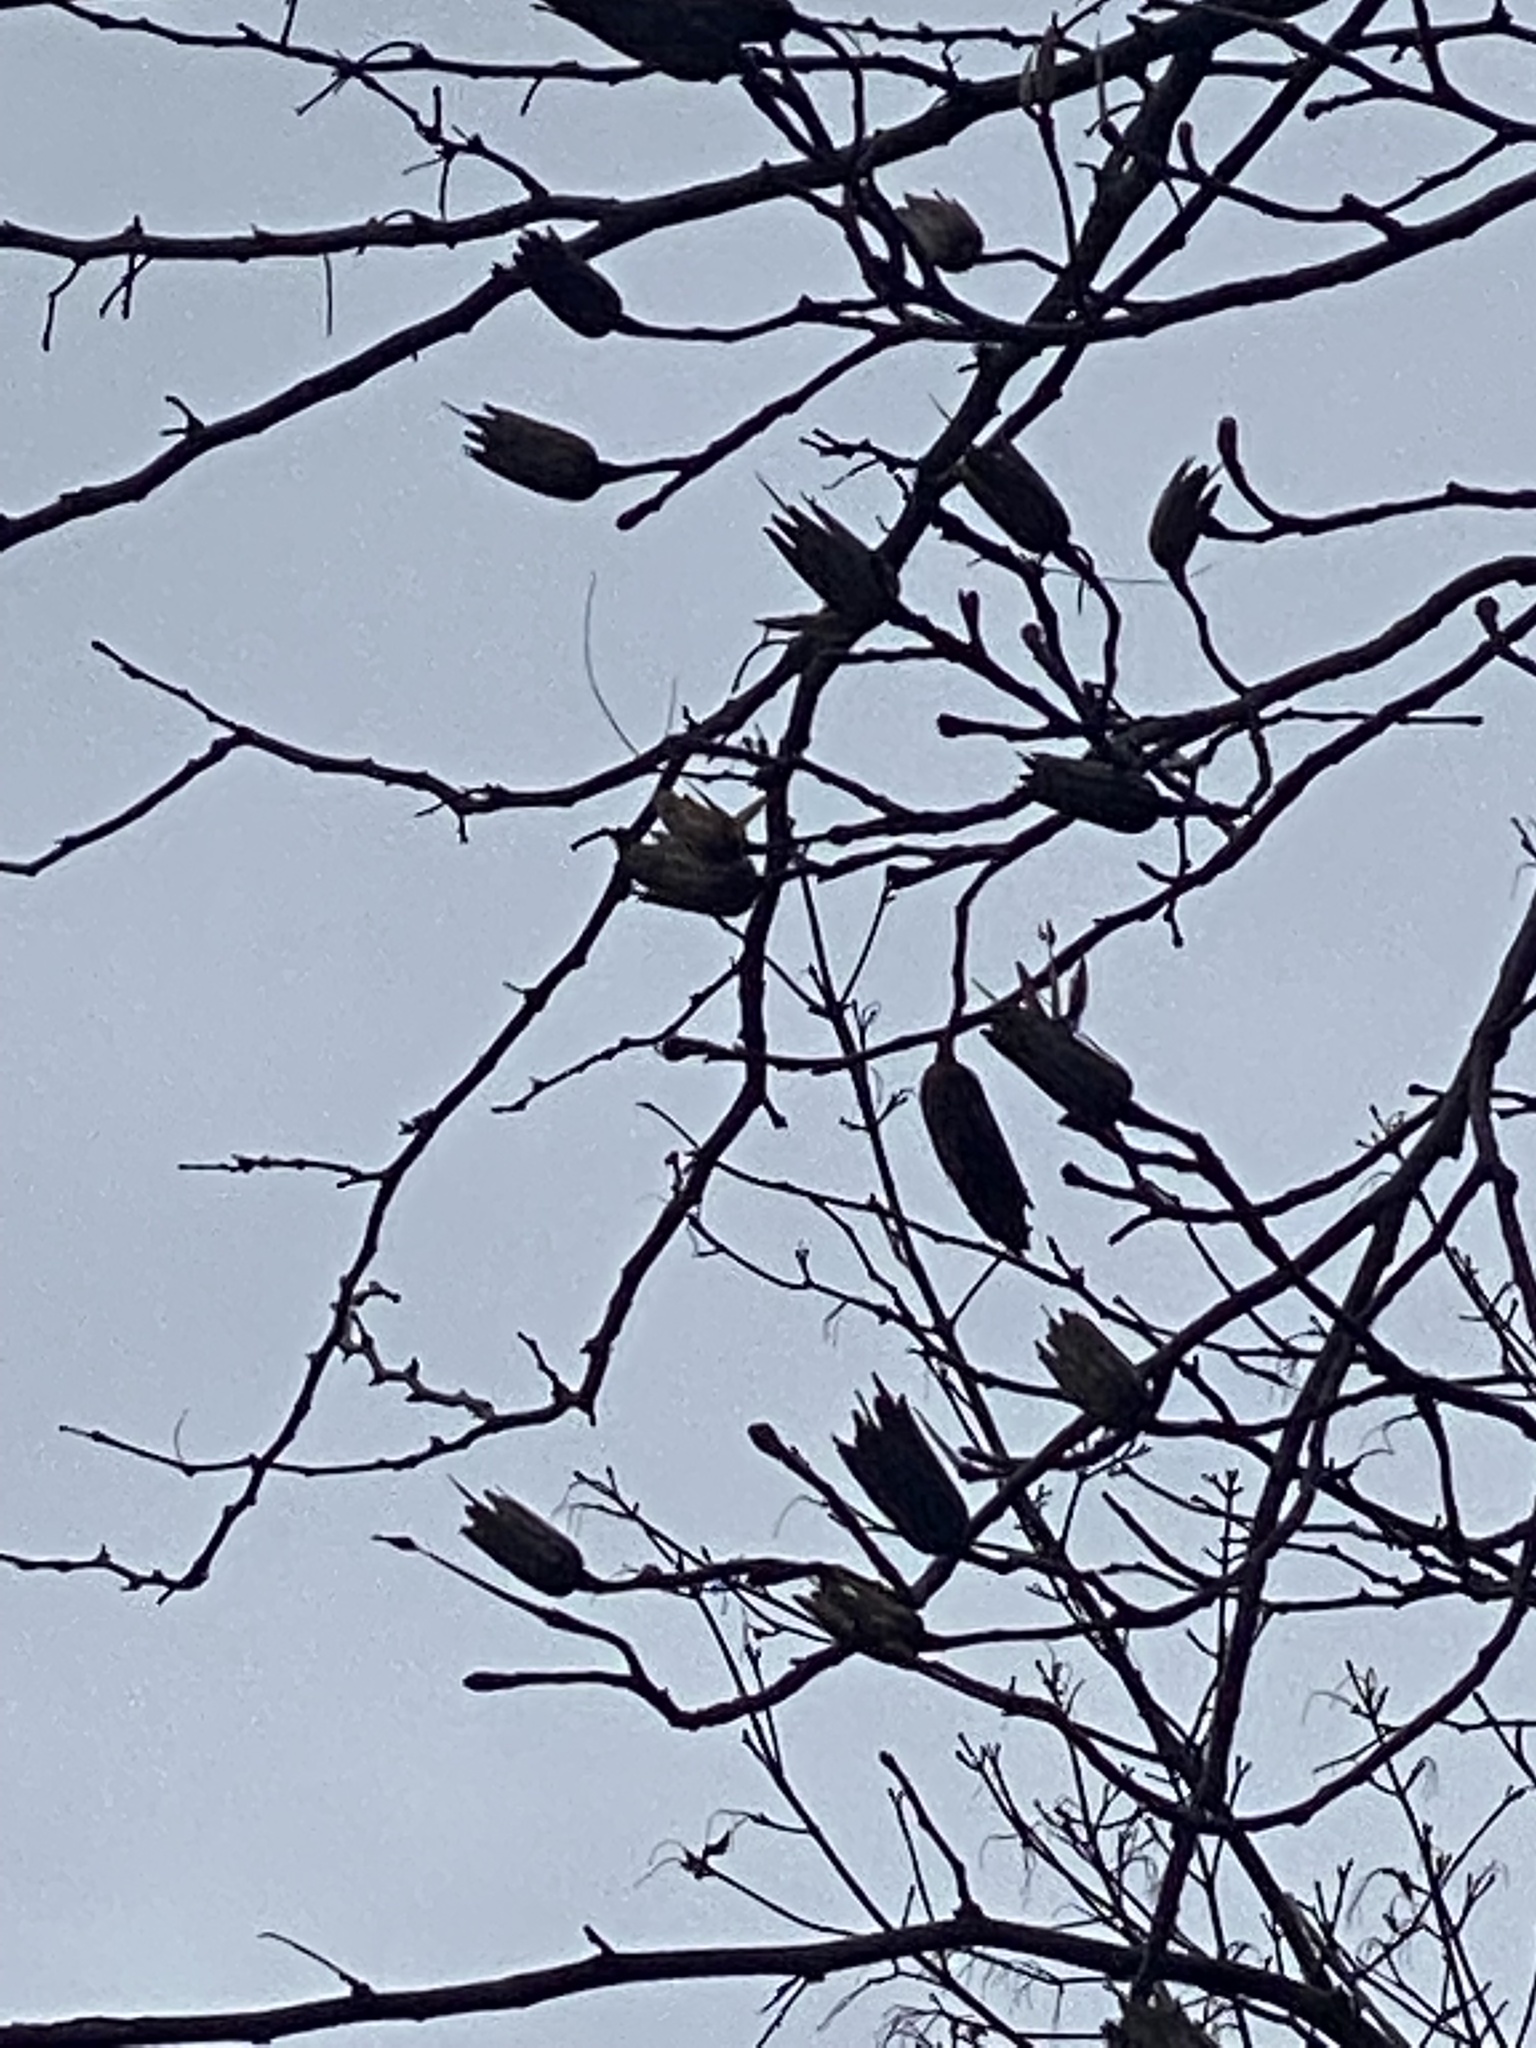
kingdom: Plantae
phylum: Tracheophyta
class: Magnoliopsida
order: Magnoliales
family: Magnoliaceae
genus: Liriodendron
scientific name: Liriodendron tulipifera
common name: Tulip tree
